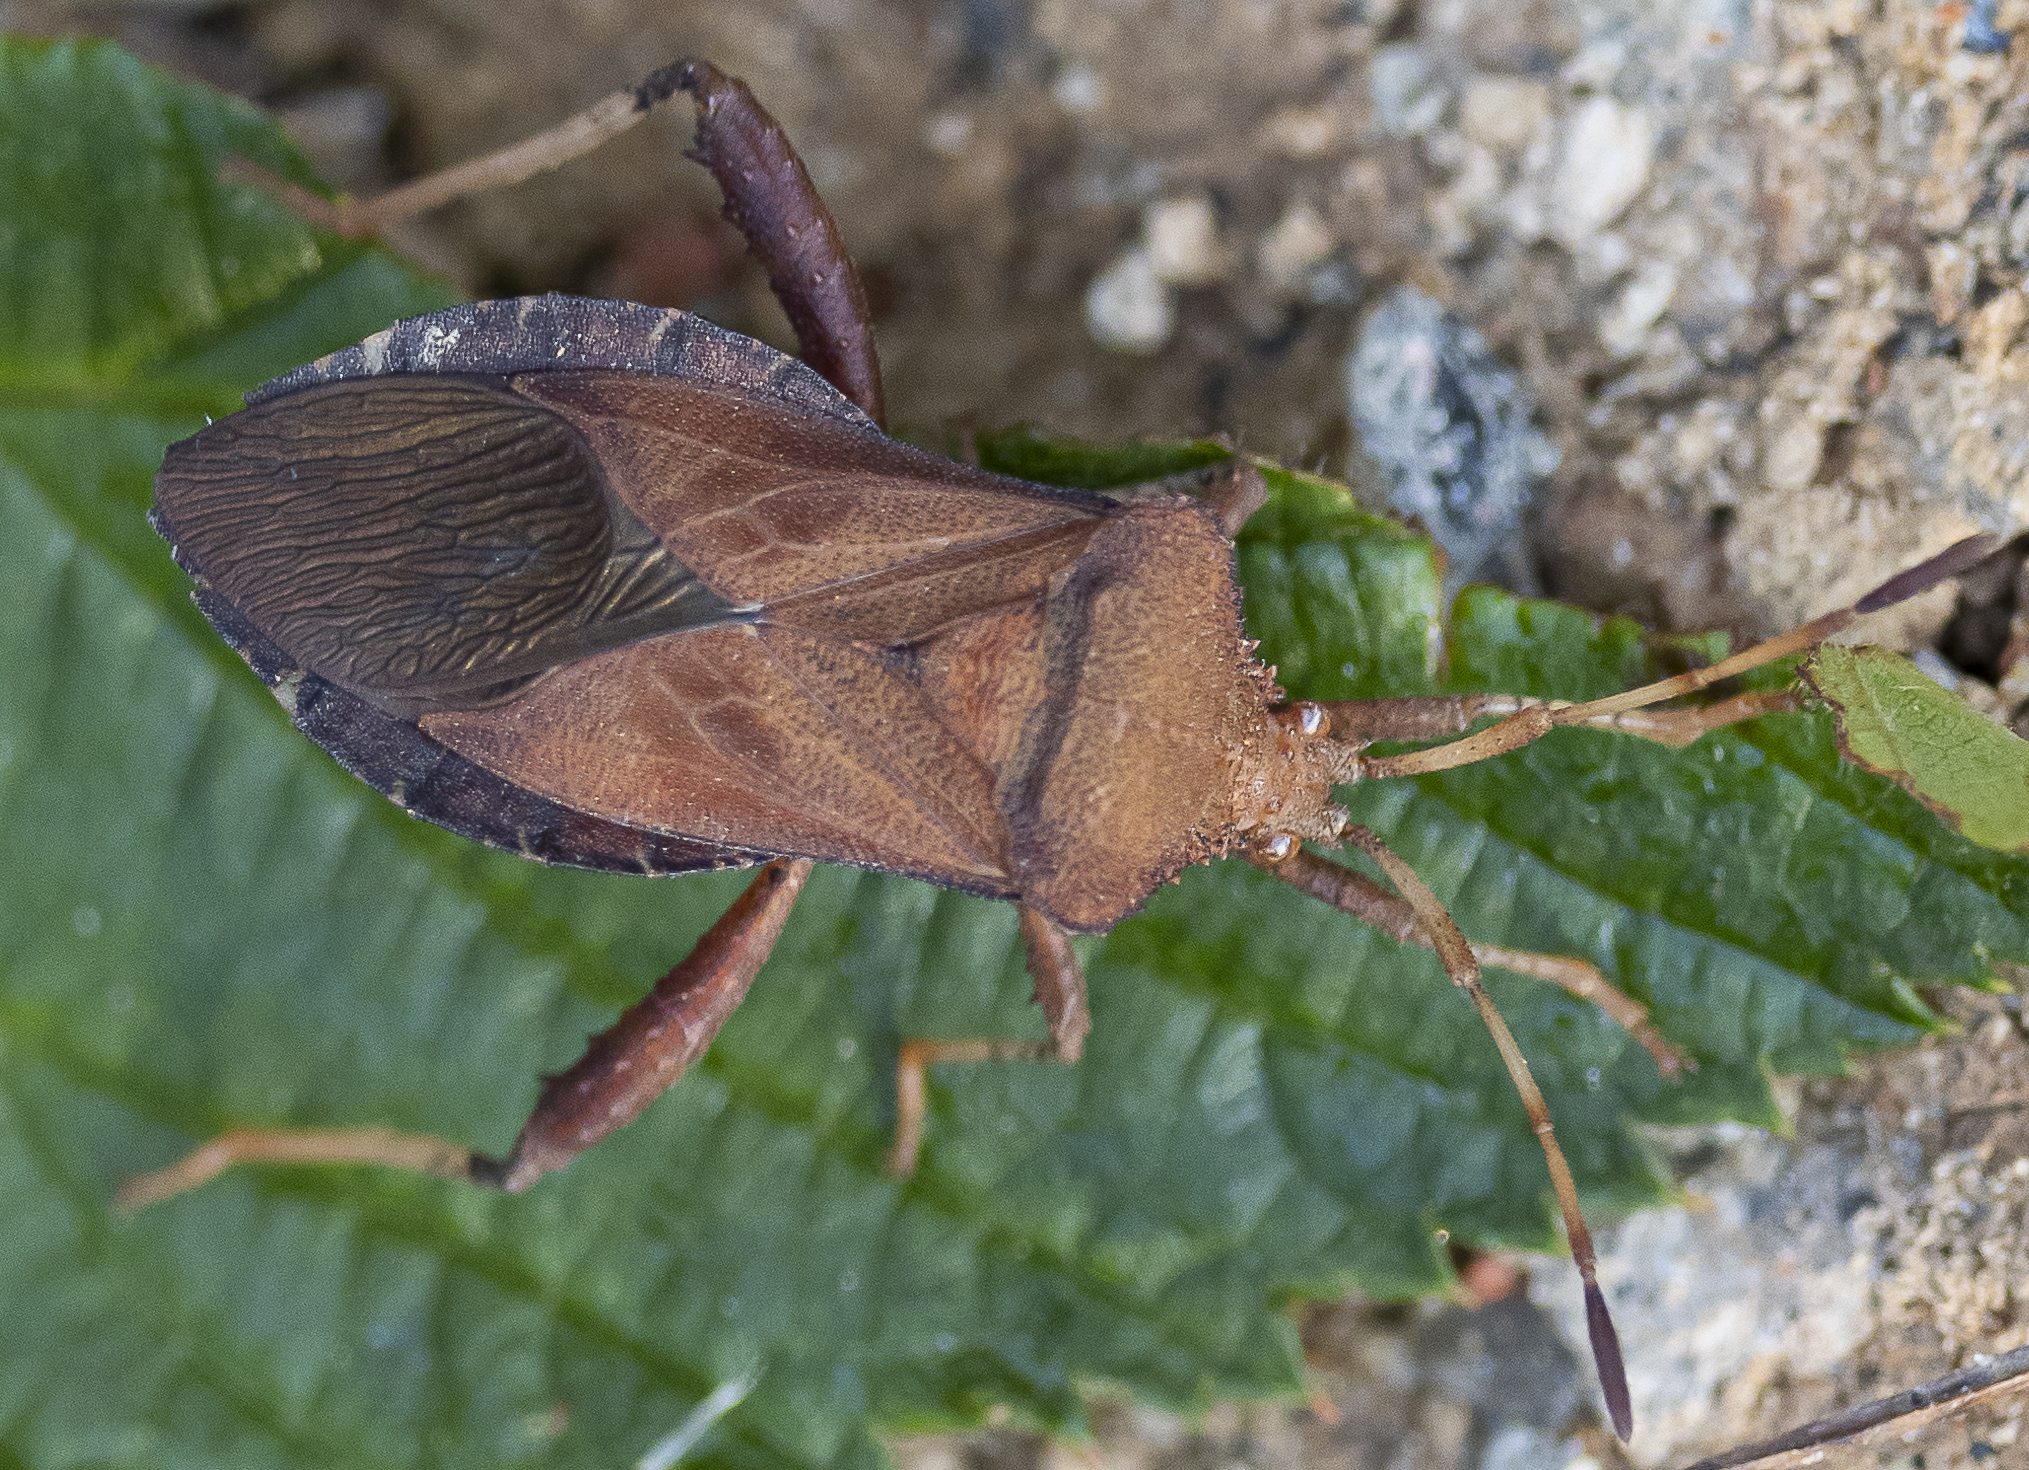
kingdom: Animalia
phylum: Arthropoda
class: Insecta
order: Hemiptera
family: Coreidae
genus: Euthochtha
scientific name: Euthochtha galeator
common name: Helmeted squash bug
